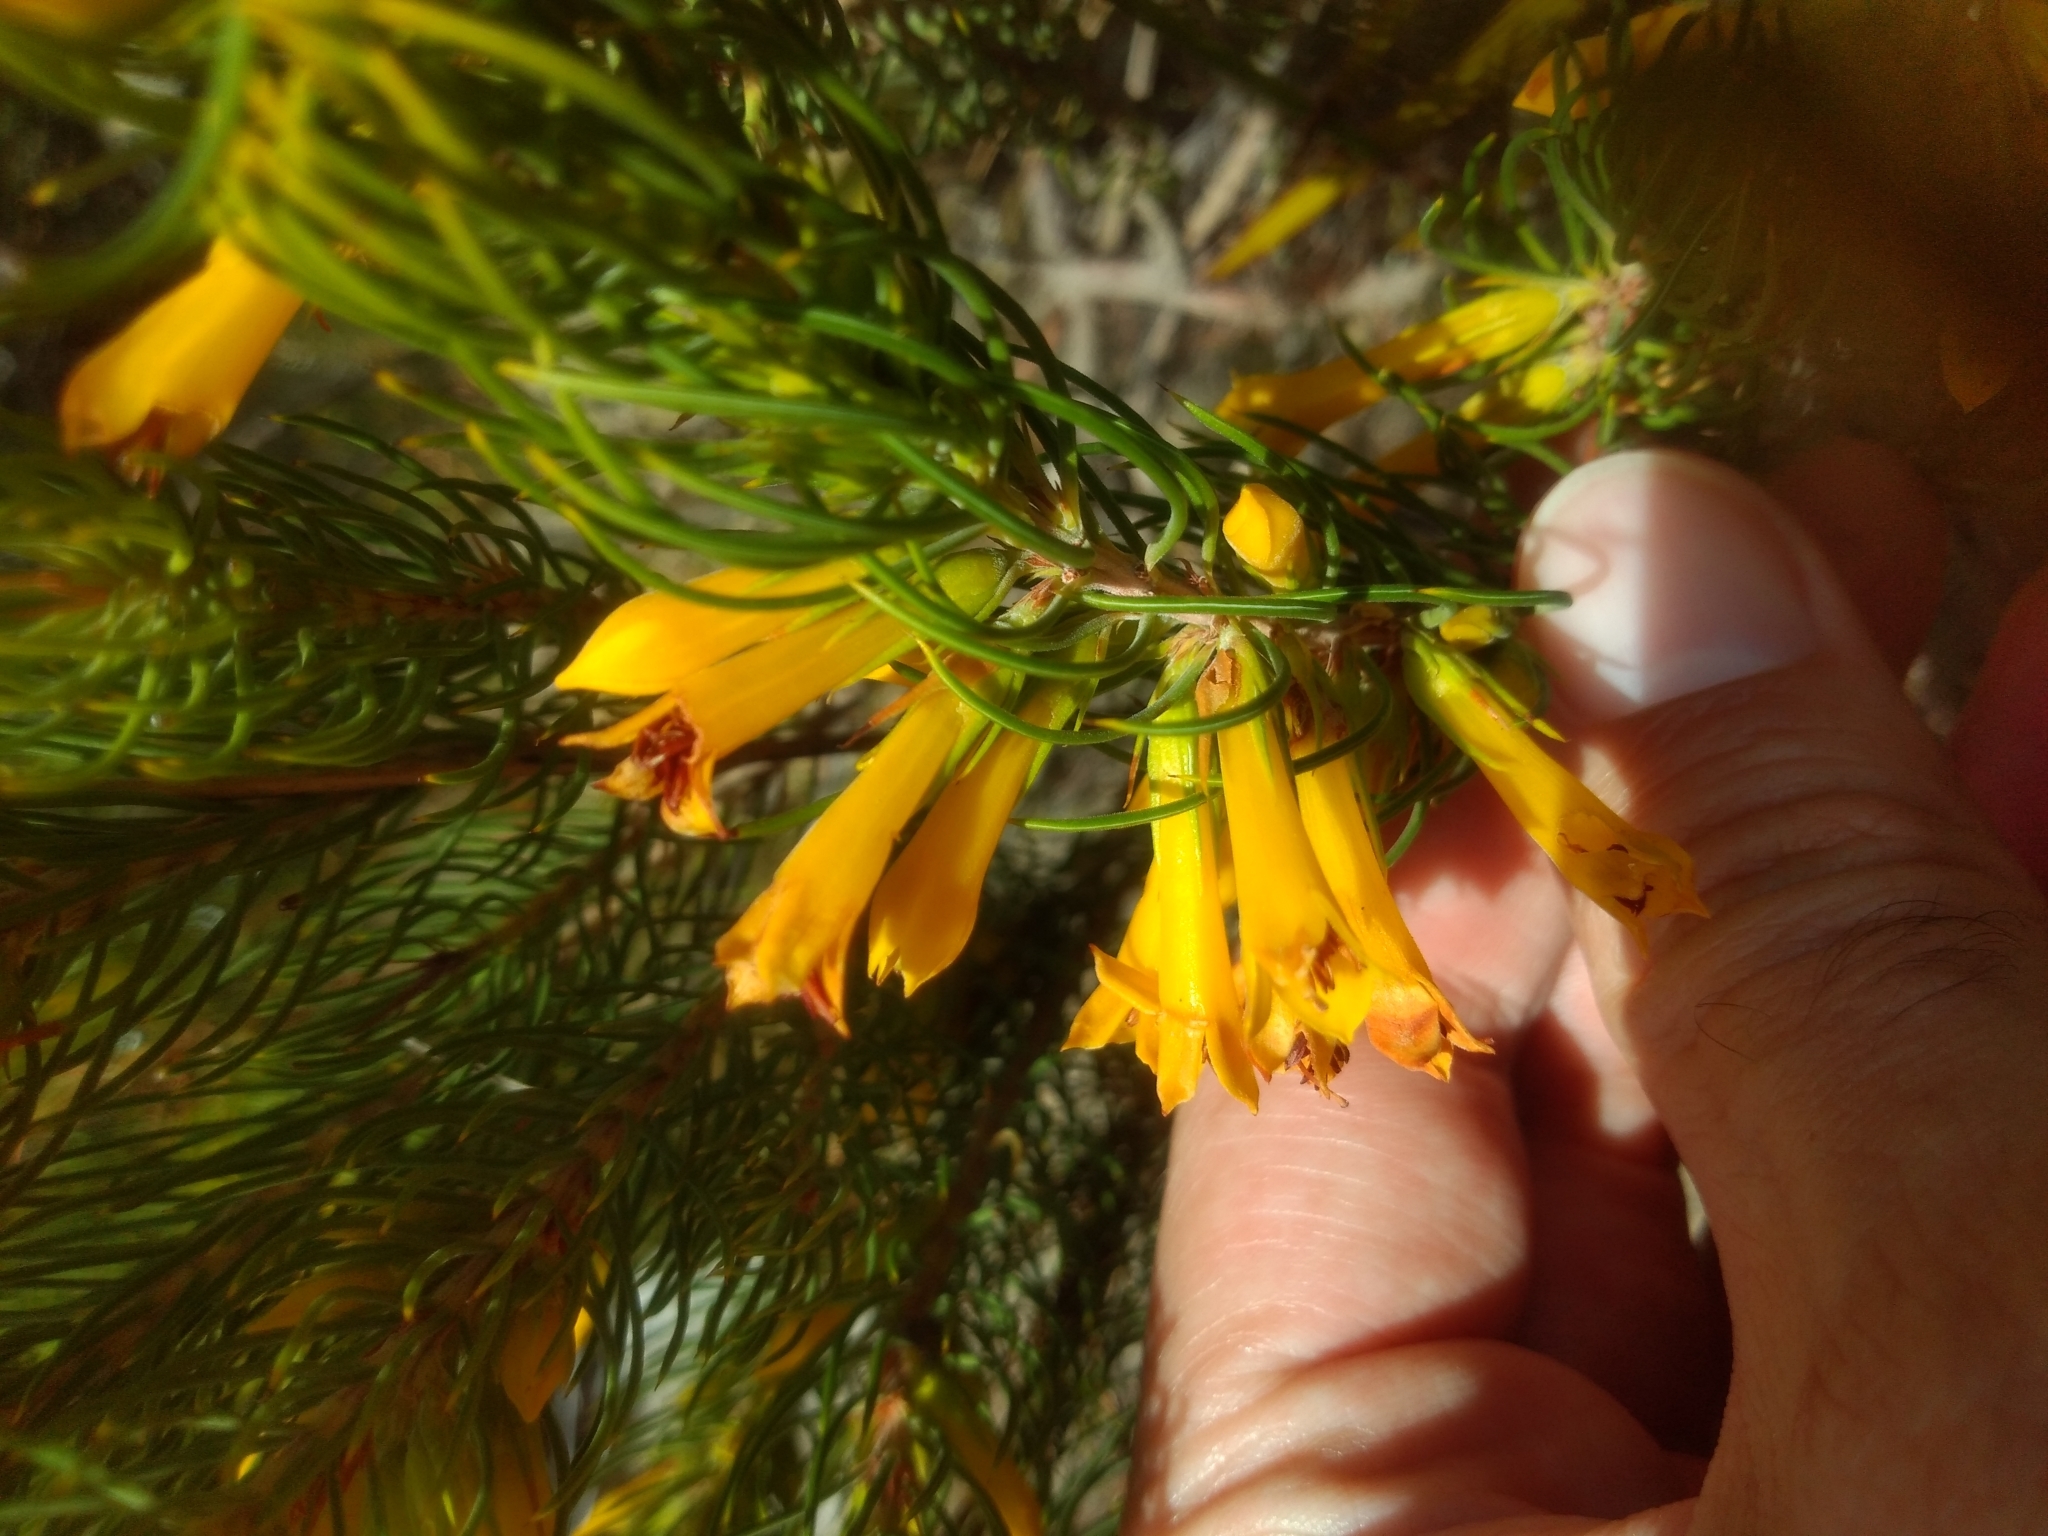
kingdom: Plantae
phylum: Tracheophyta
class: Magnoliopsida
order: Ericales
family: Ericaceae
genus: Erica
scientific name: Erica grandiflora
